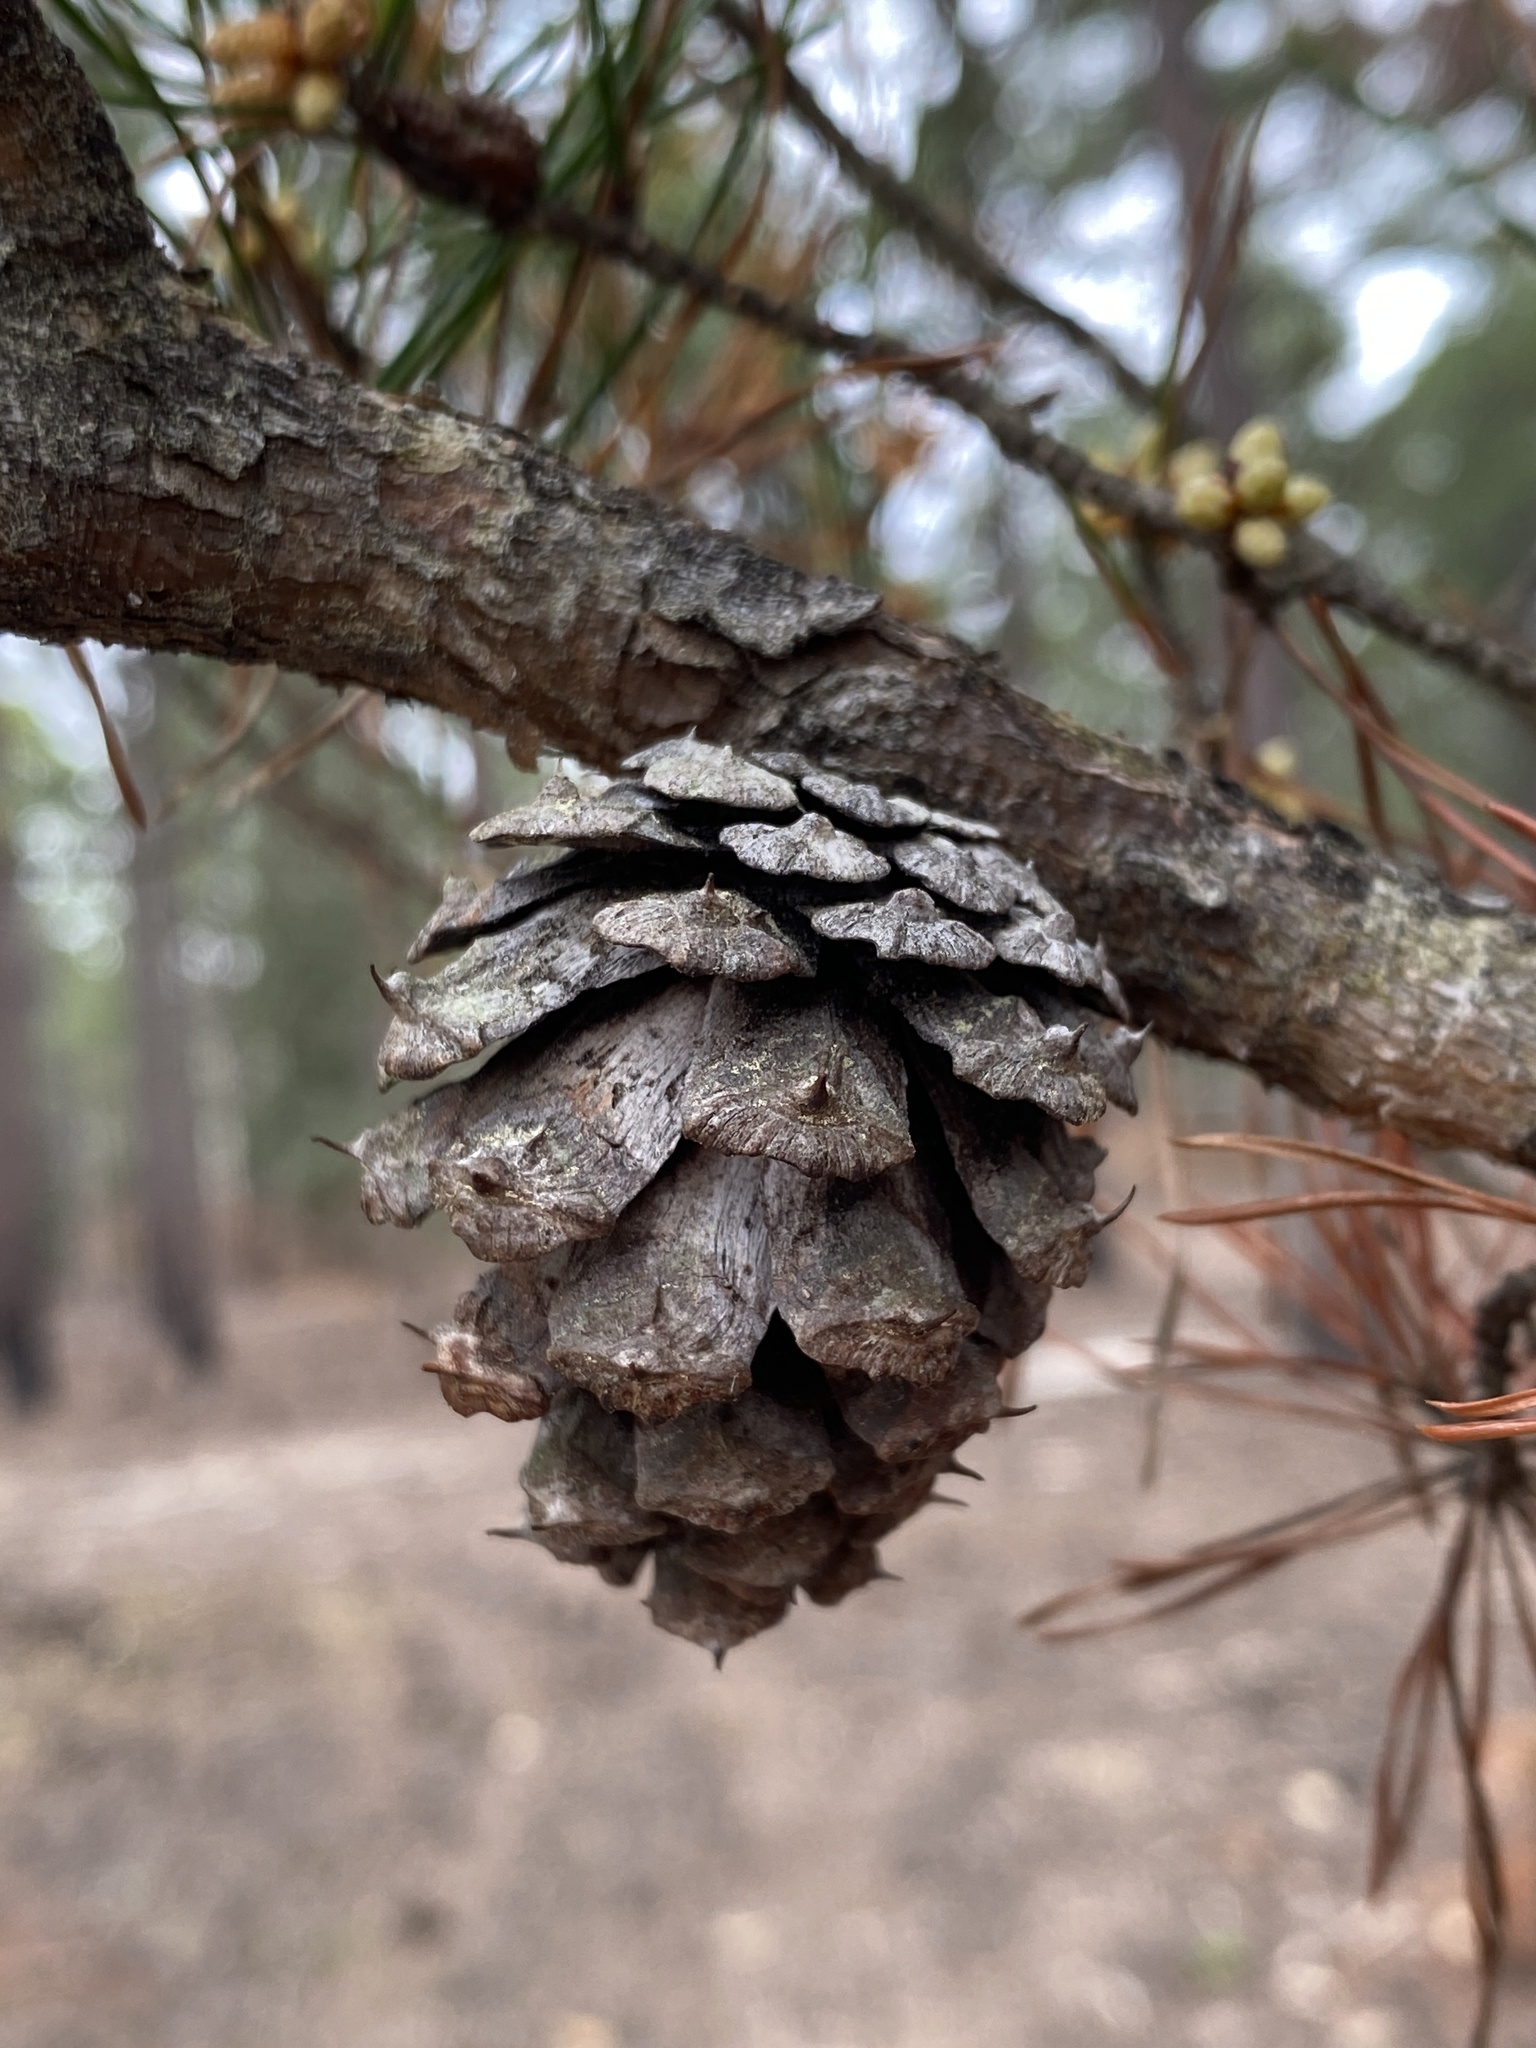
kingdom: Plantae
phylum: Tracheophyta
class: Pinopsida
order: Pinales
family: Pinaceae
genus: Pinus
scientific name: Pinus virginiana
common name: Scrub pine
